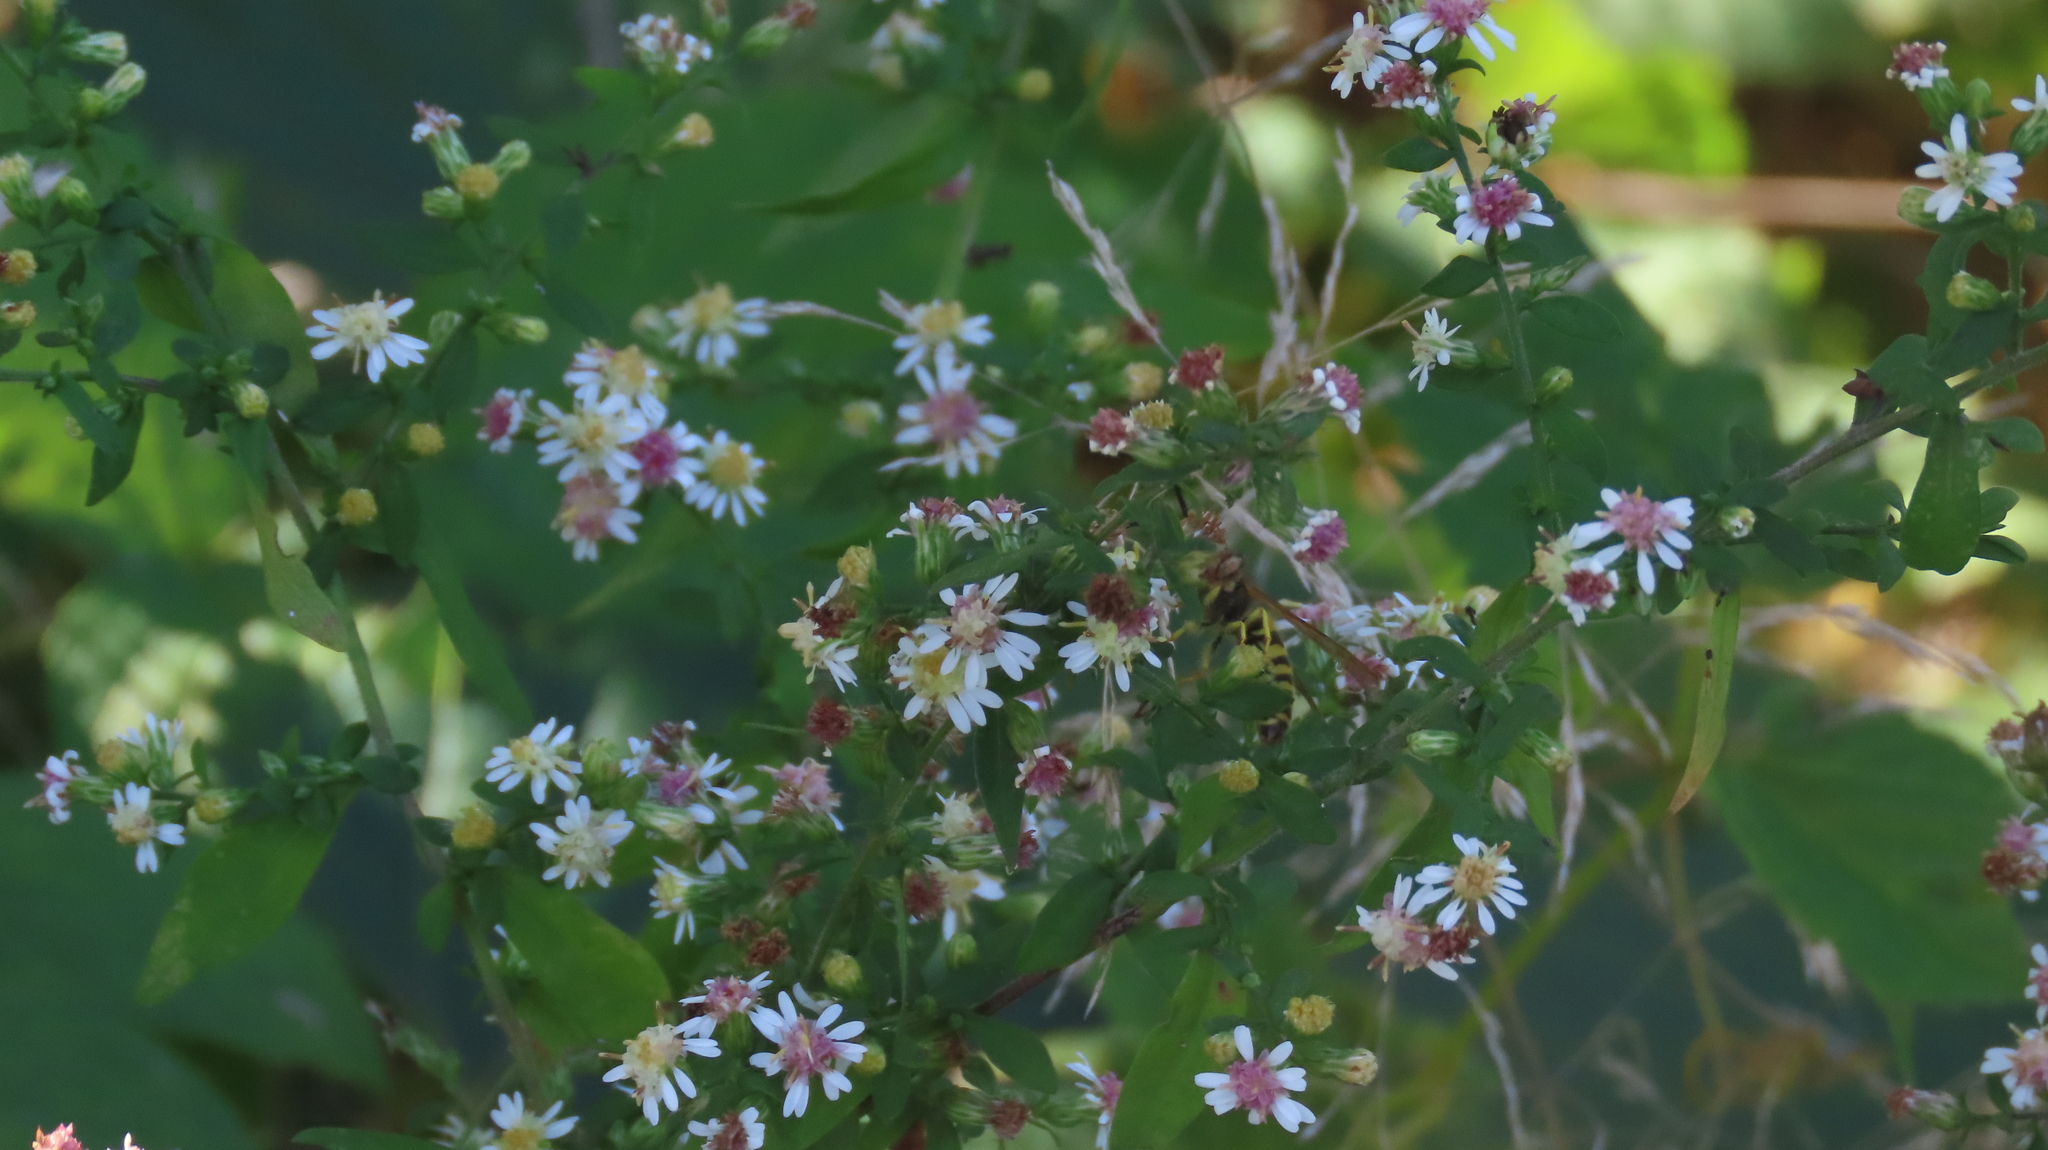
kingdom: Plantae
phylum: Tracheophyta
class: Magnoliopsida
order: Asterales
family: Asteraceae
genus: Symphyotrichum
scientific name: Symphyotrichum lateriflorum
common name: Calico aster
